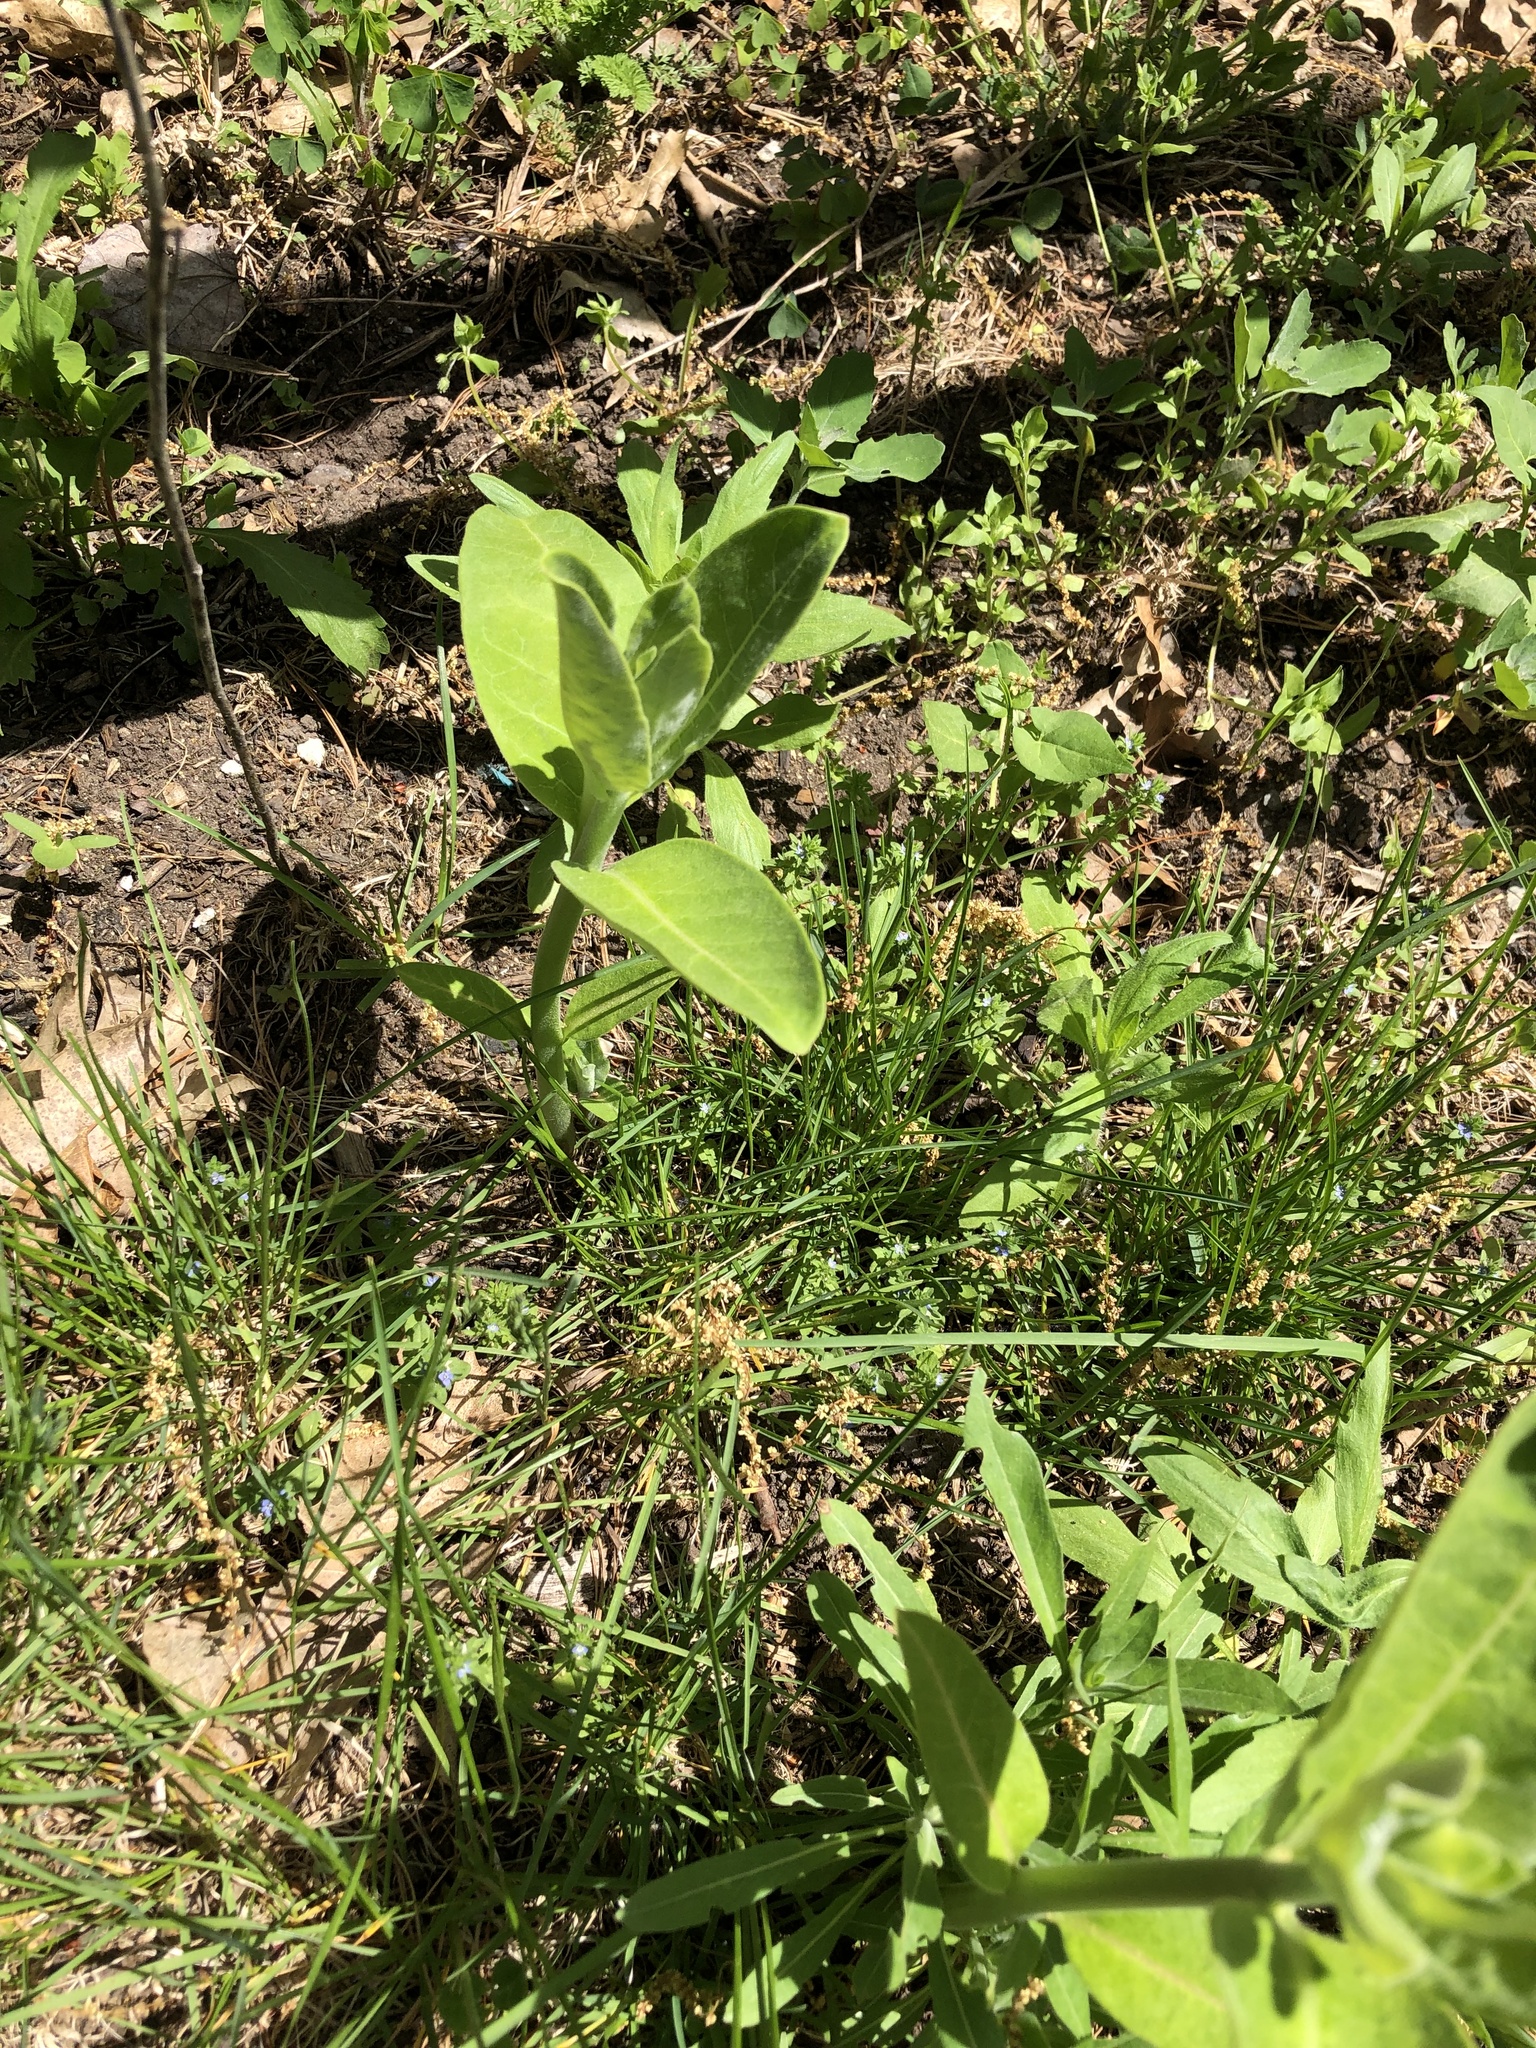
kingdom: Plantae
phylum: Tracheophyta
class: Magnoliopsida
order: Gentianales
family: Apocynaceae
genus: Asclepias
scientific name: Asclepias syriaca
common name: Common milkweed
